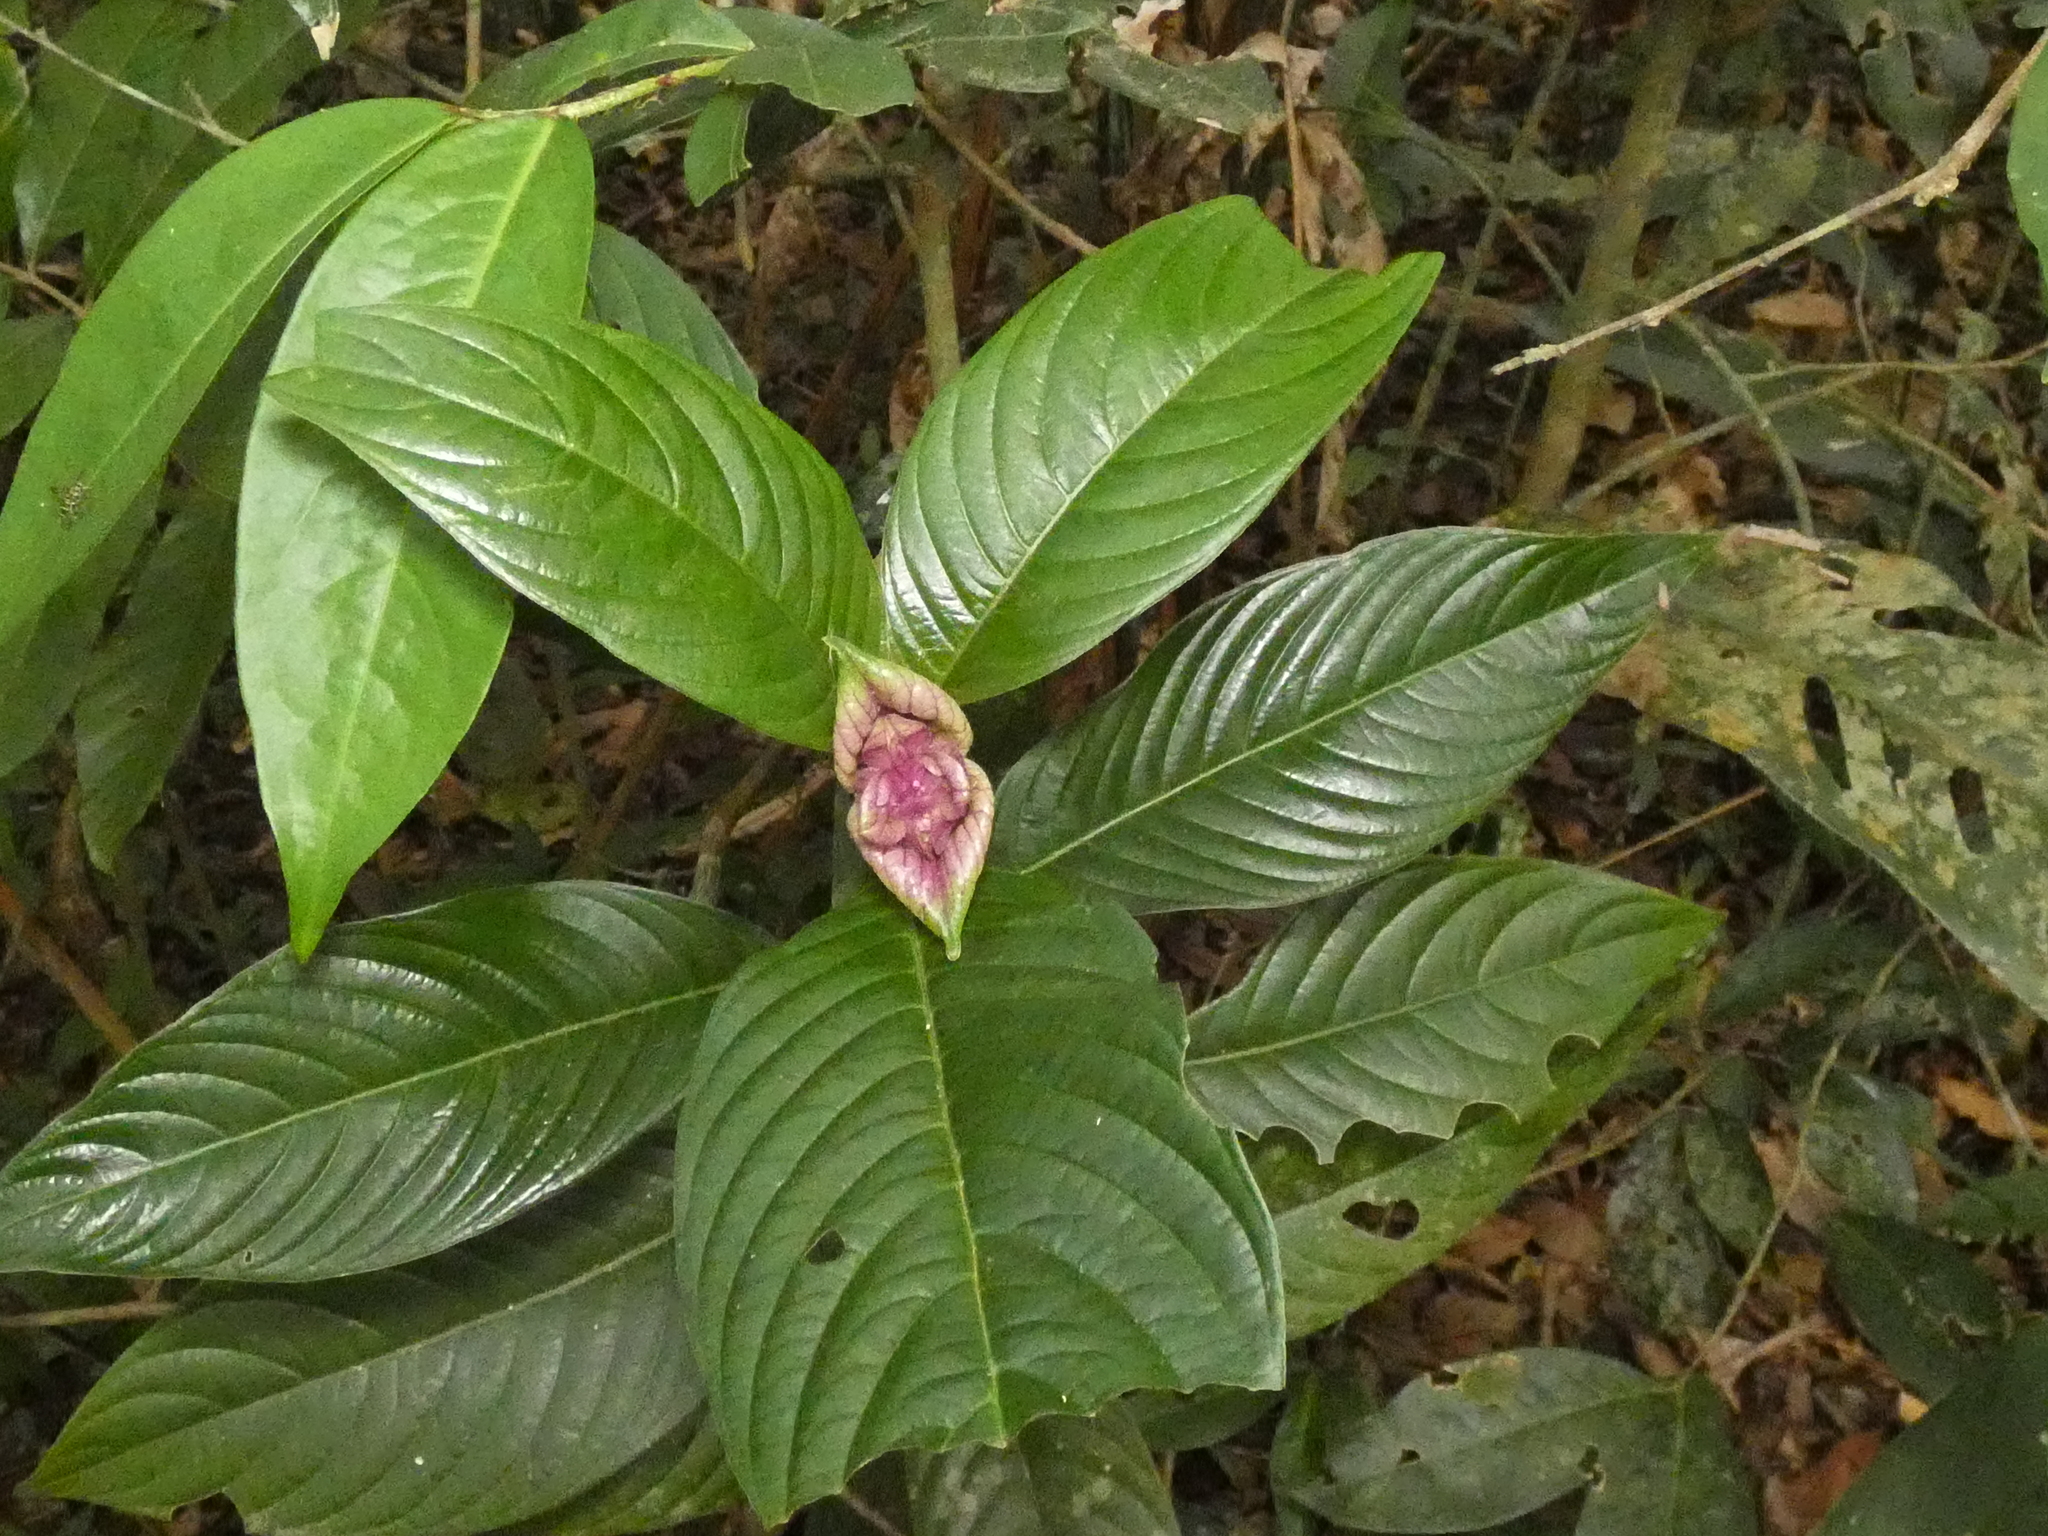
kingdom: Plantae
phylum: Tracheophyta
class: Magnoliopsida
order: Gentianales
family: Rubiaceae
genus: Palicourea
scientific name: Palicourea colorata
